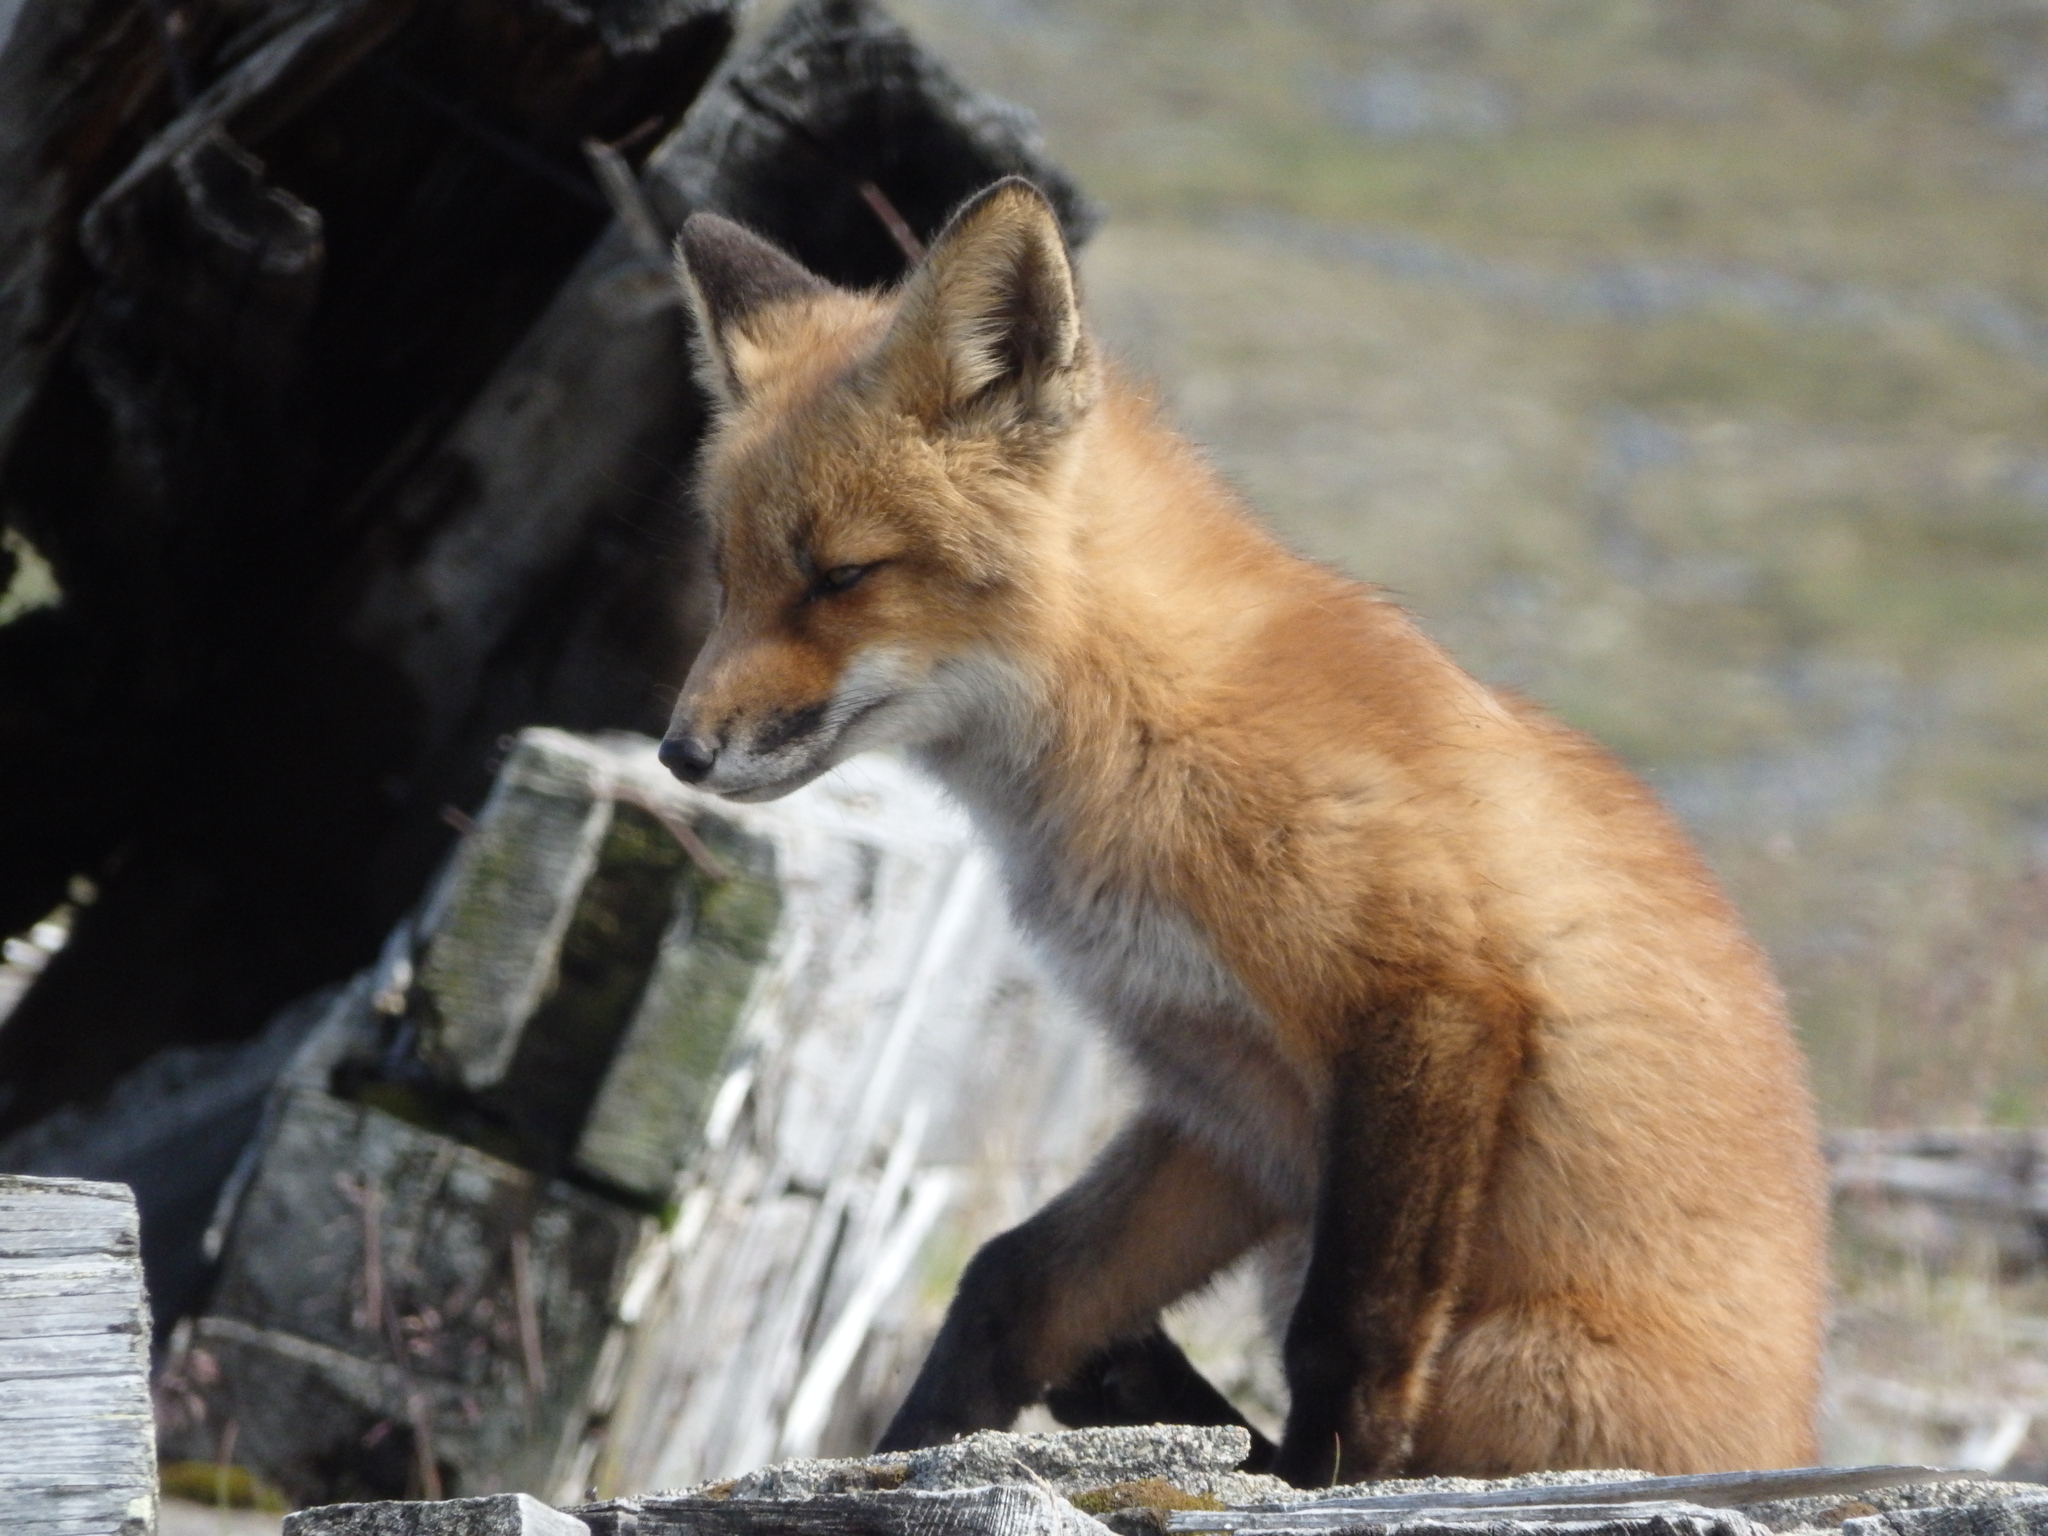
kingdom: Animalia
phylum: Chordata
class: Mammalia
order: Carnivora
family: Canidae
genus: Vulpes
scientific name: Vulpes vulpes
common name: Red fox
